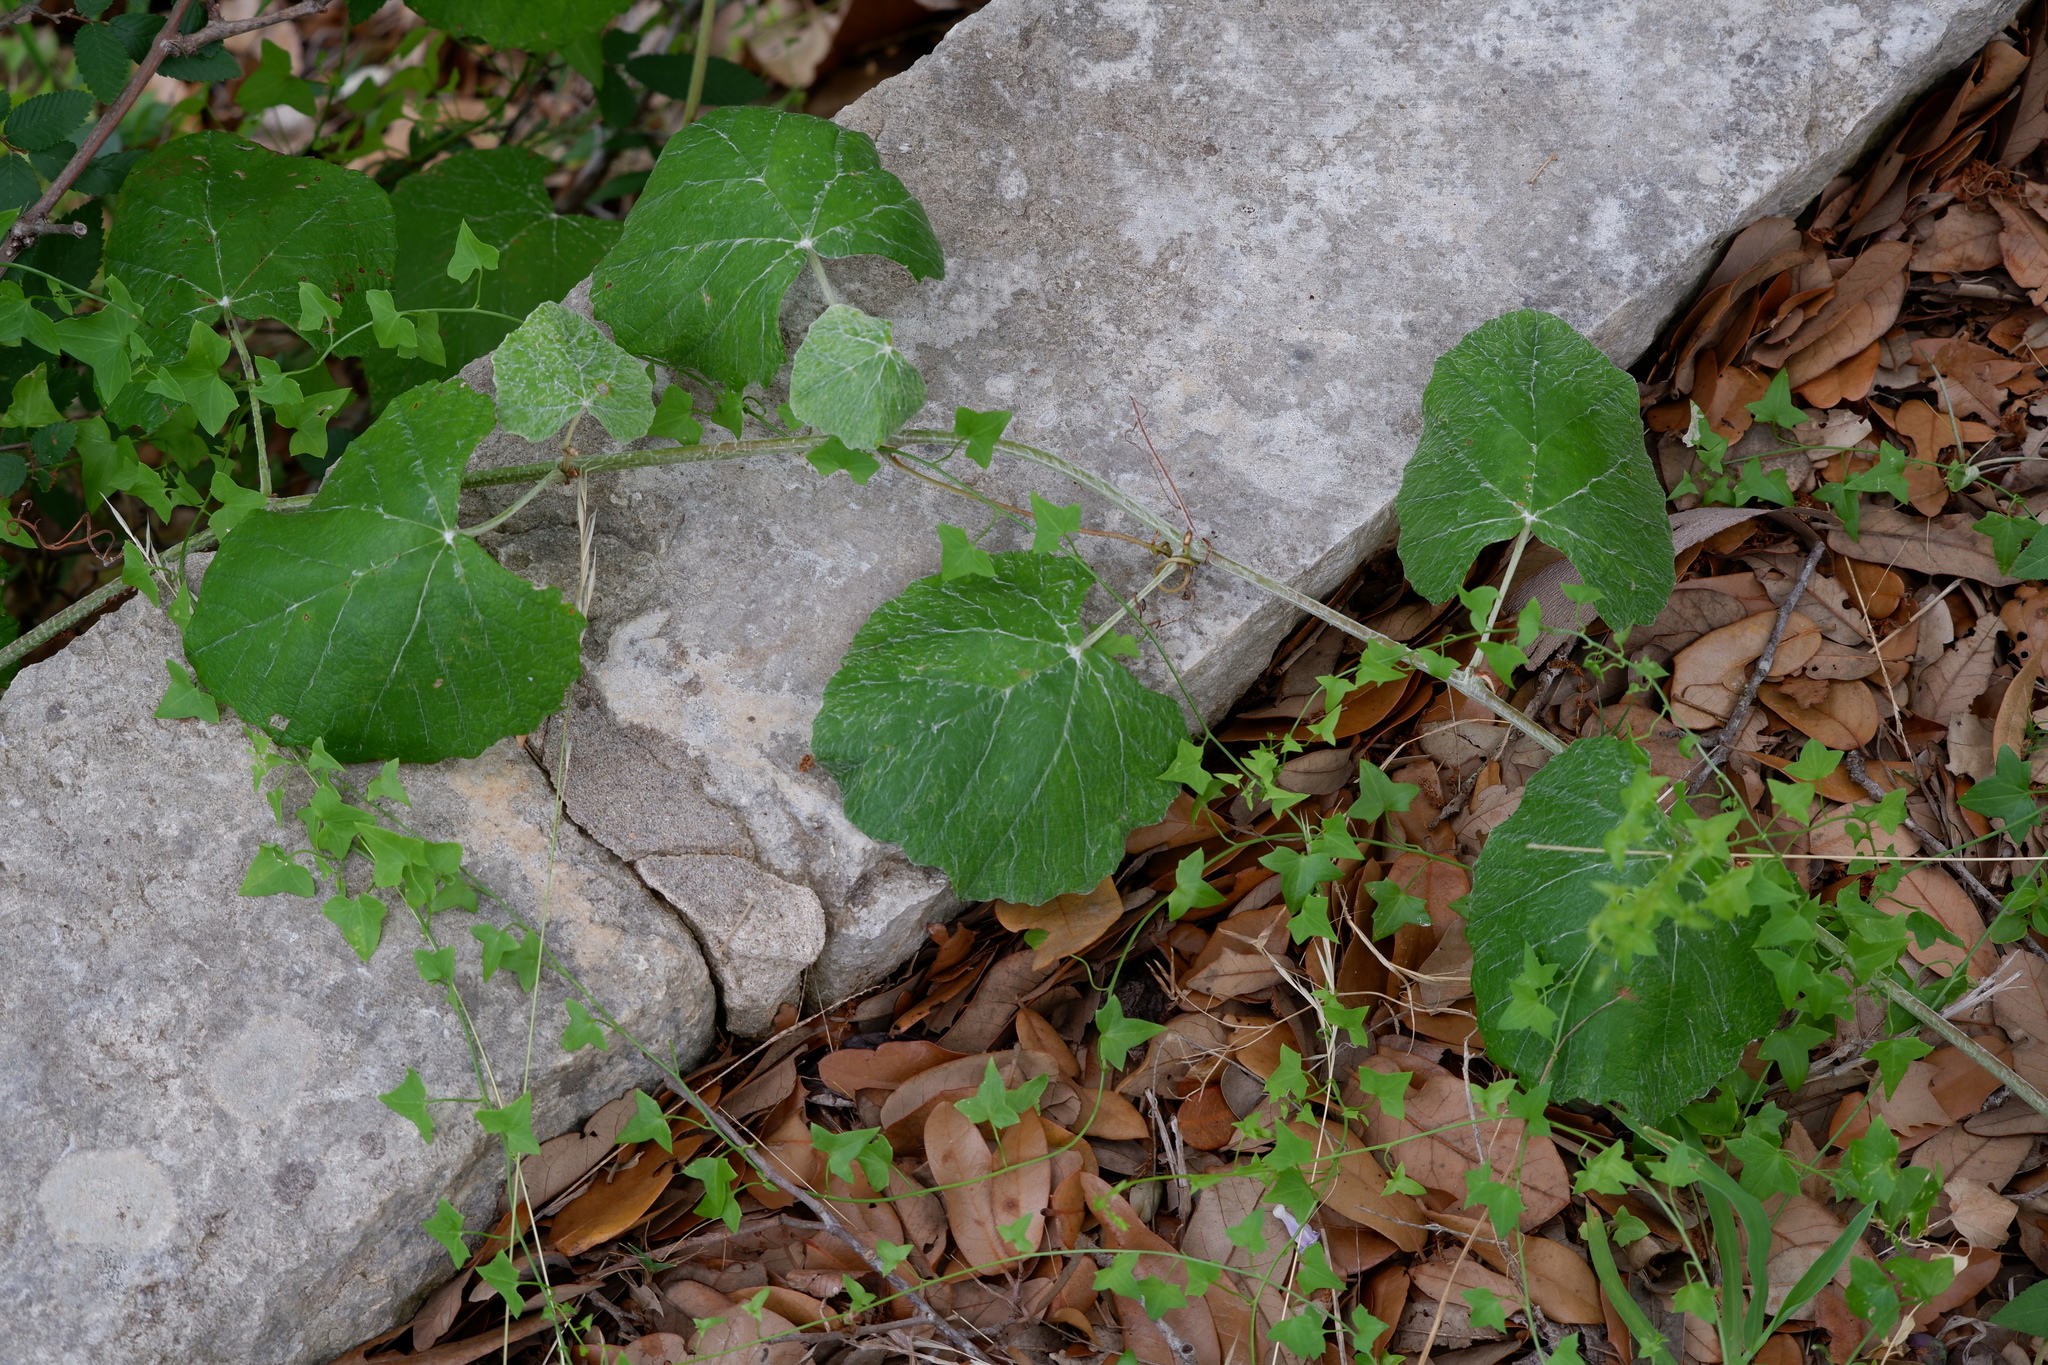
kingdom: Plantae
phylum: Tracheophyta
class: Magnoliopsida
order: Vitales
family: Vitaceae
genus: Vitis
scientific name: Vitis mustangensis
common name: Mustang grape
